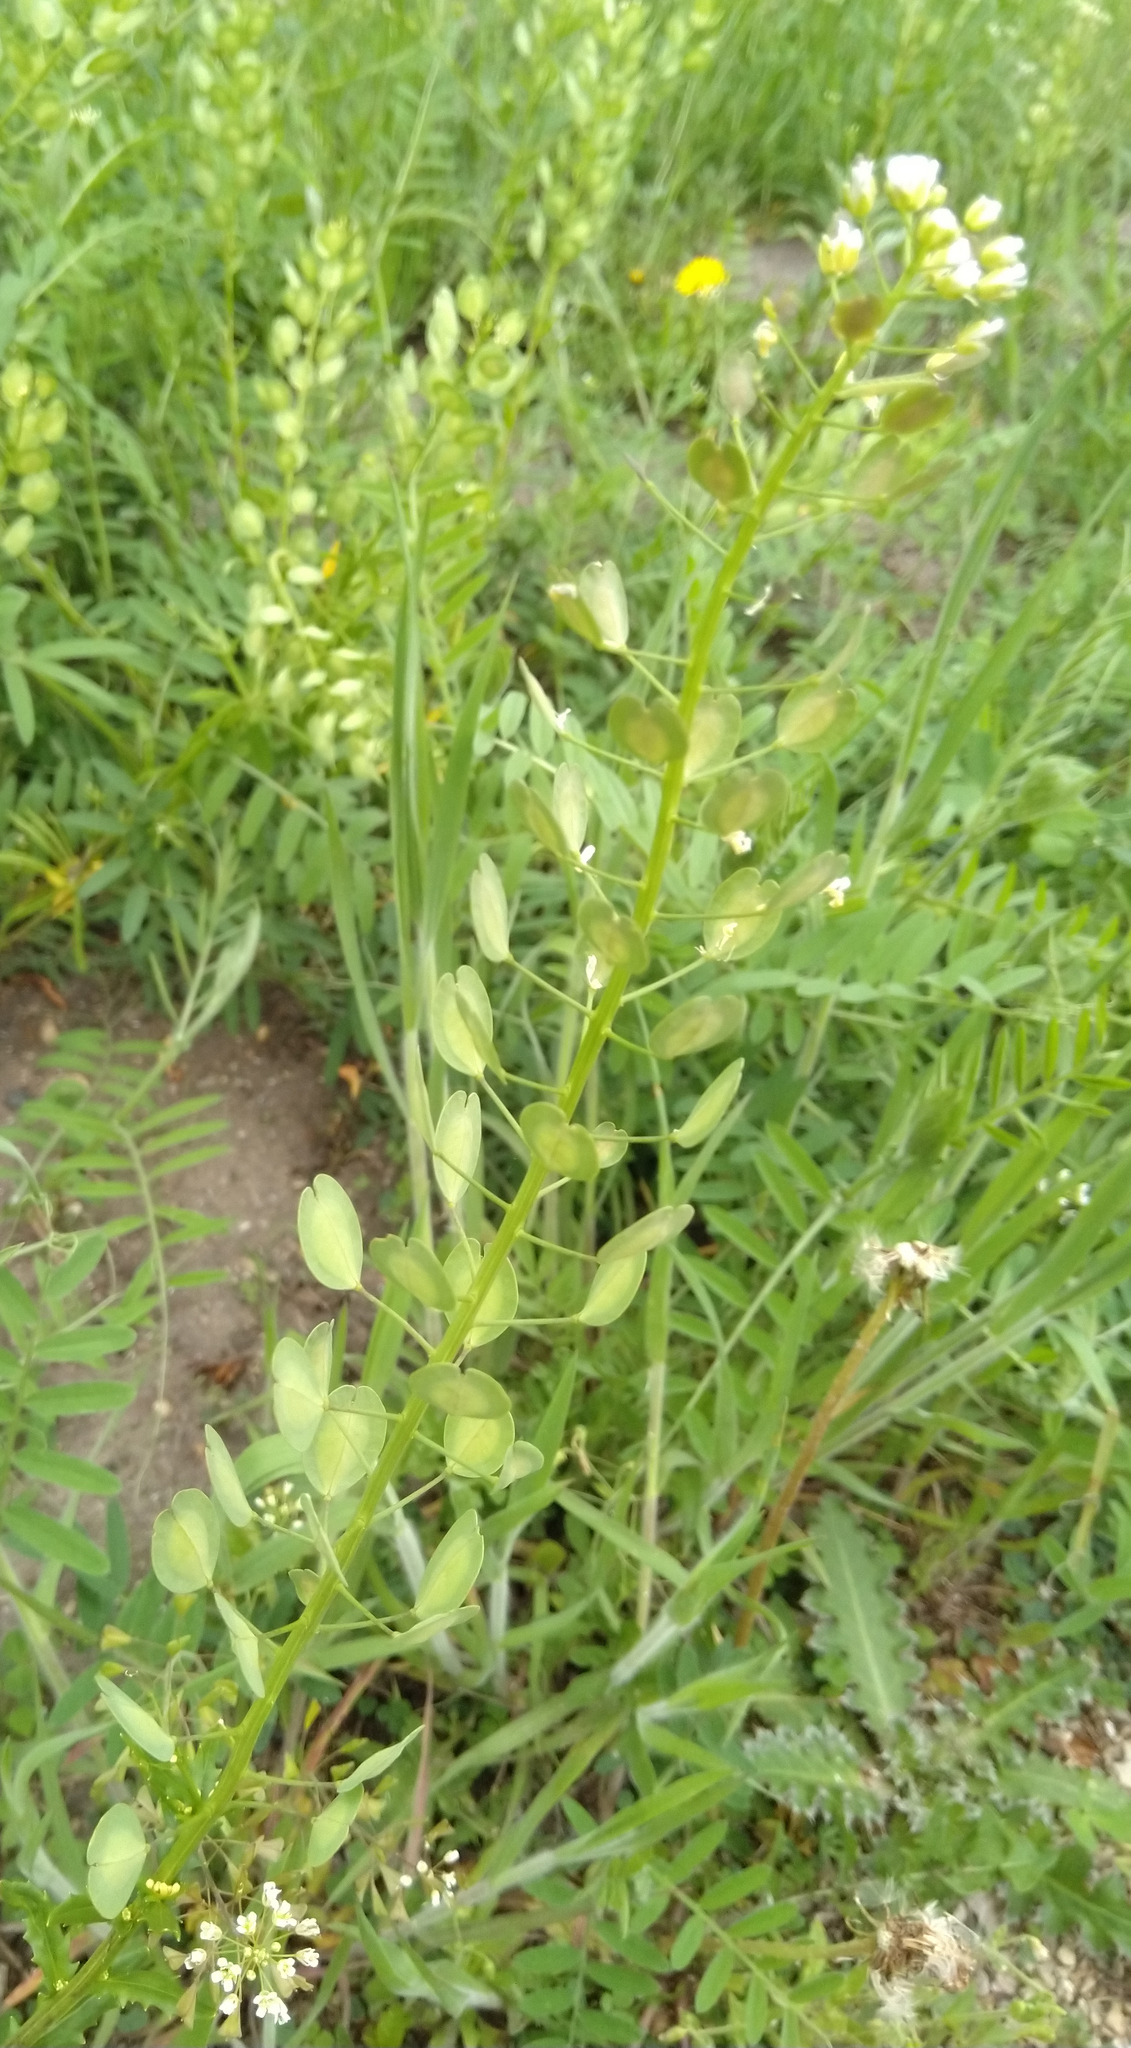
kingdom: Plantae
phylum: Tracheophyta
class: Magnoliopsida
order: Brassicales
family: Brassicaceae
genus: Thlaspi
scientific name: Thlaspi arvense
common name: Field pennycress
